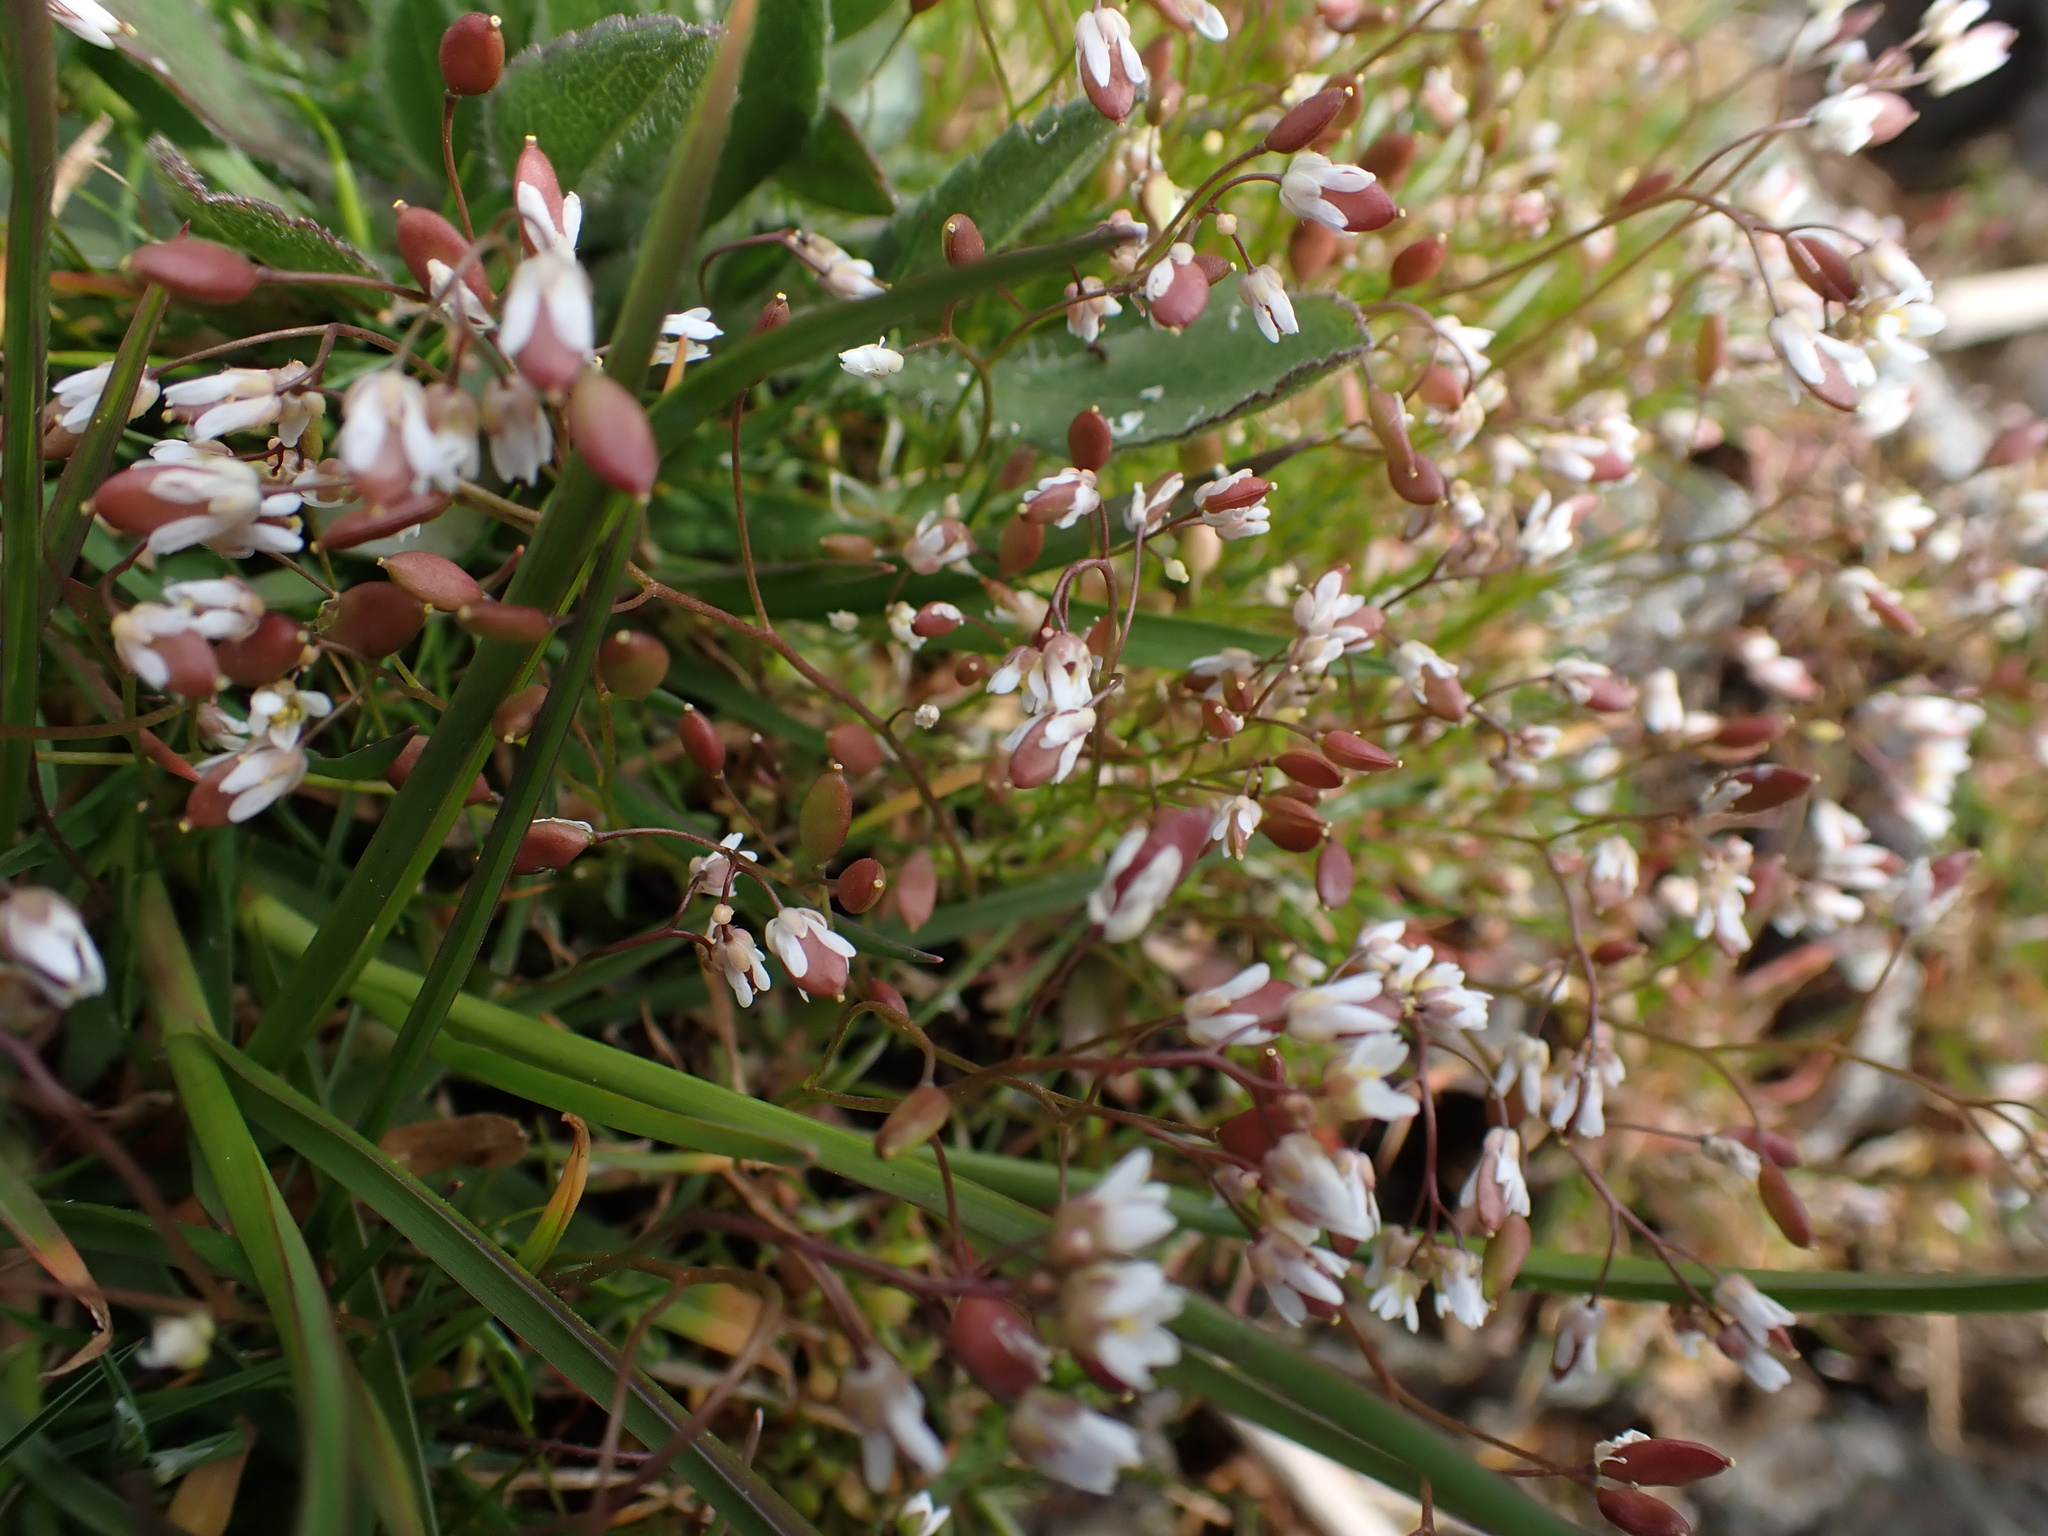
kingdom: Plantae
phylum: Tracheophyta
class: Magnoliopsida
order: Brassicales
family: Brassicaceae
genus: Draba
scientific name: Draba verna
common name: Spring draba
